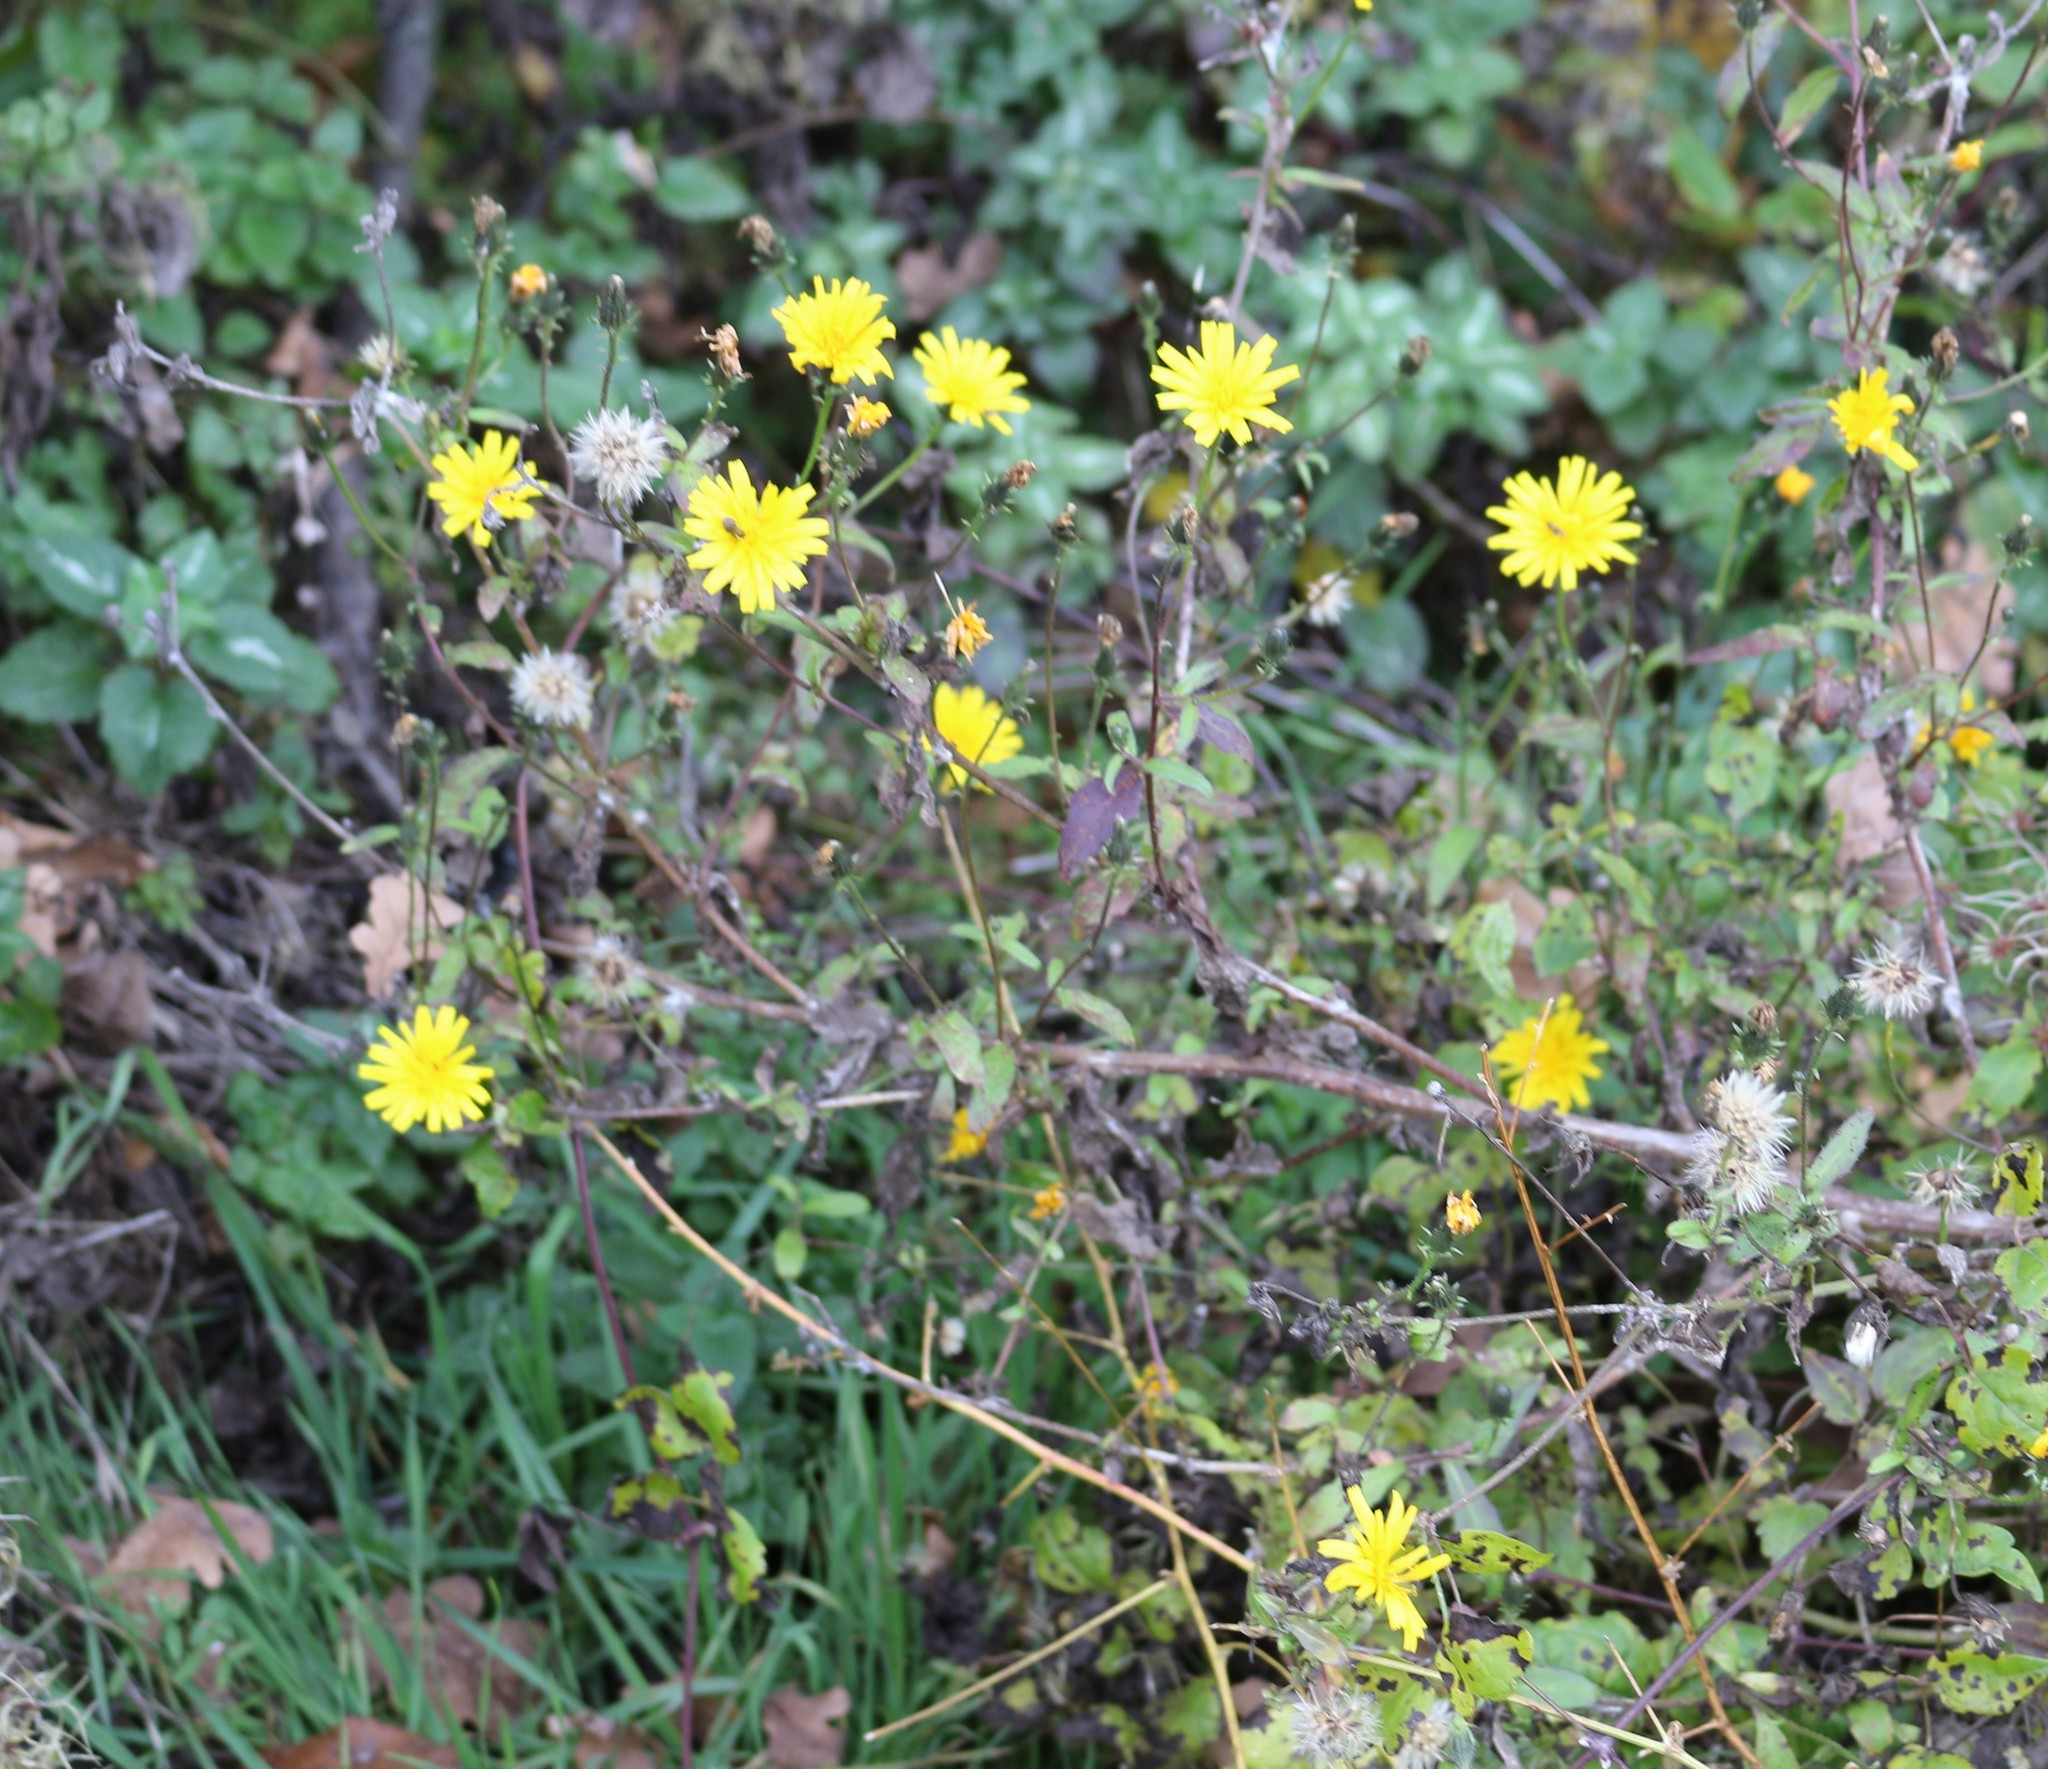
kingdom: Plantae
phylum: Tracheophyta
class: Magnoliopsida
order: Asterales
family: Asteraceae
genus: Picris
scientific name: Picris hieracioides
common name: Hawkweed oxtongue
